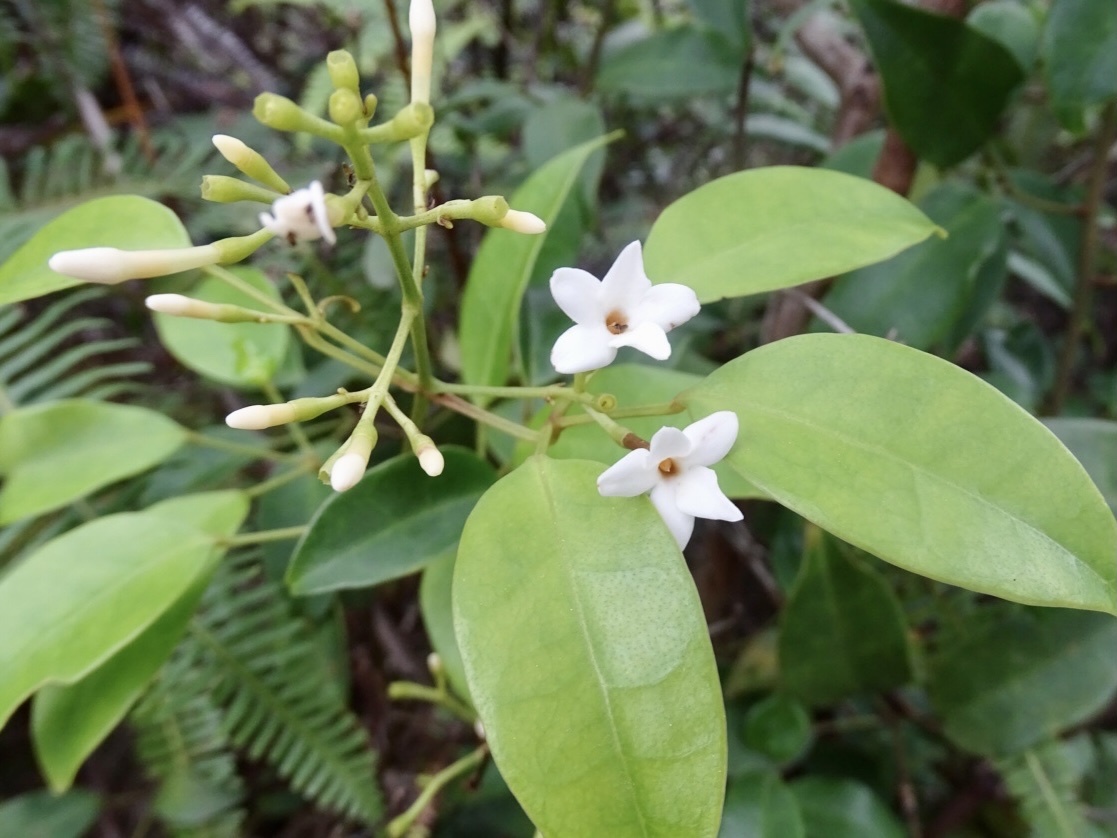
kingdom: Plantae
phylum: Tracheophyta
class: Magnoliopsida
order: Lamiales
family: Oleaceae
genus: Jasminum
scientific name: Jasminum lanceolaria
